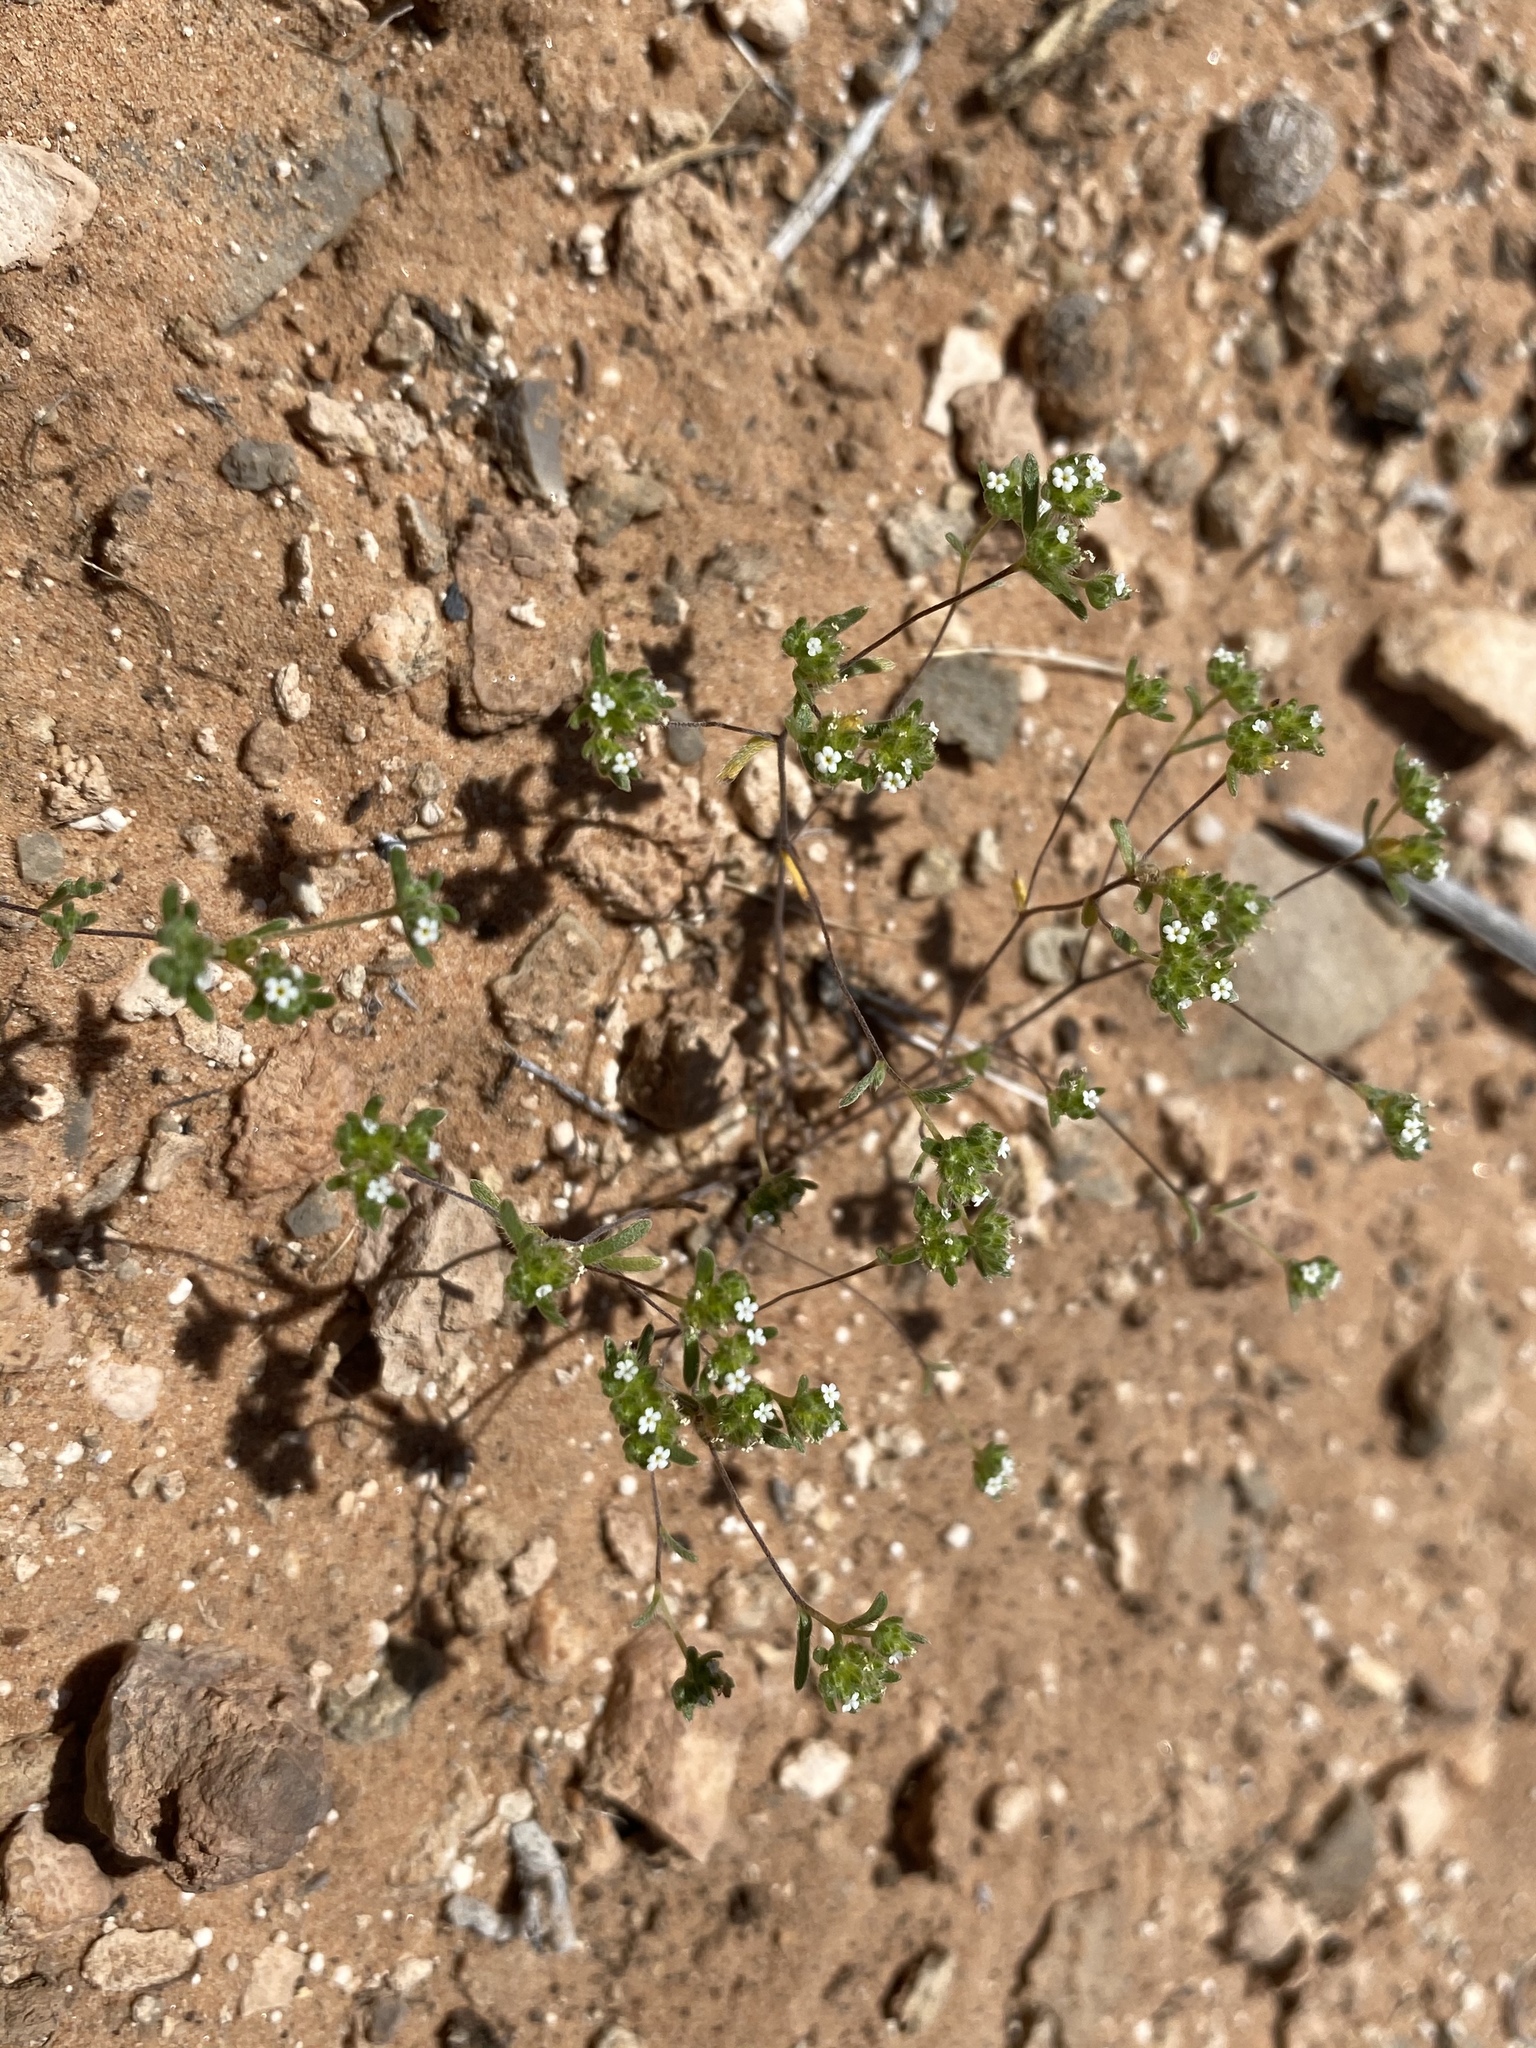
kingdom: Plantae
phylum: Tracheophyta
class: Magnoliopsida
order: Boraginales
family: Boraginaceae
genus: Eremocarya
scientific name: Eremocarya micrantha
